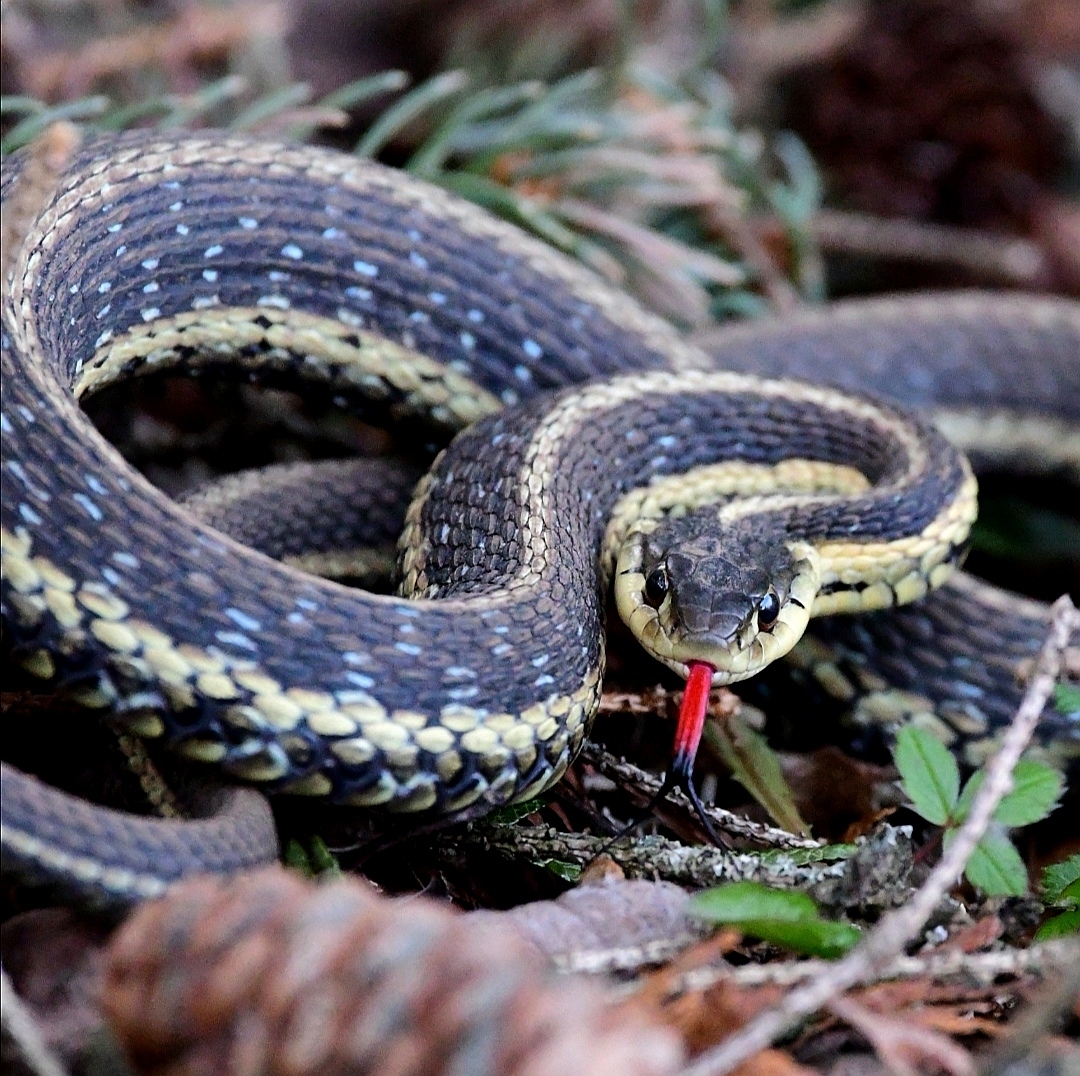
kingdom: Animalia
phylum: Chordata
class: Squamata
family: Colubridae
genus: Thamnophis
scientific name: Thamnophis sirtalis
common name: Common garter snake
